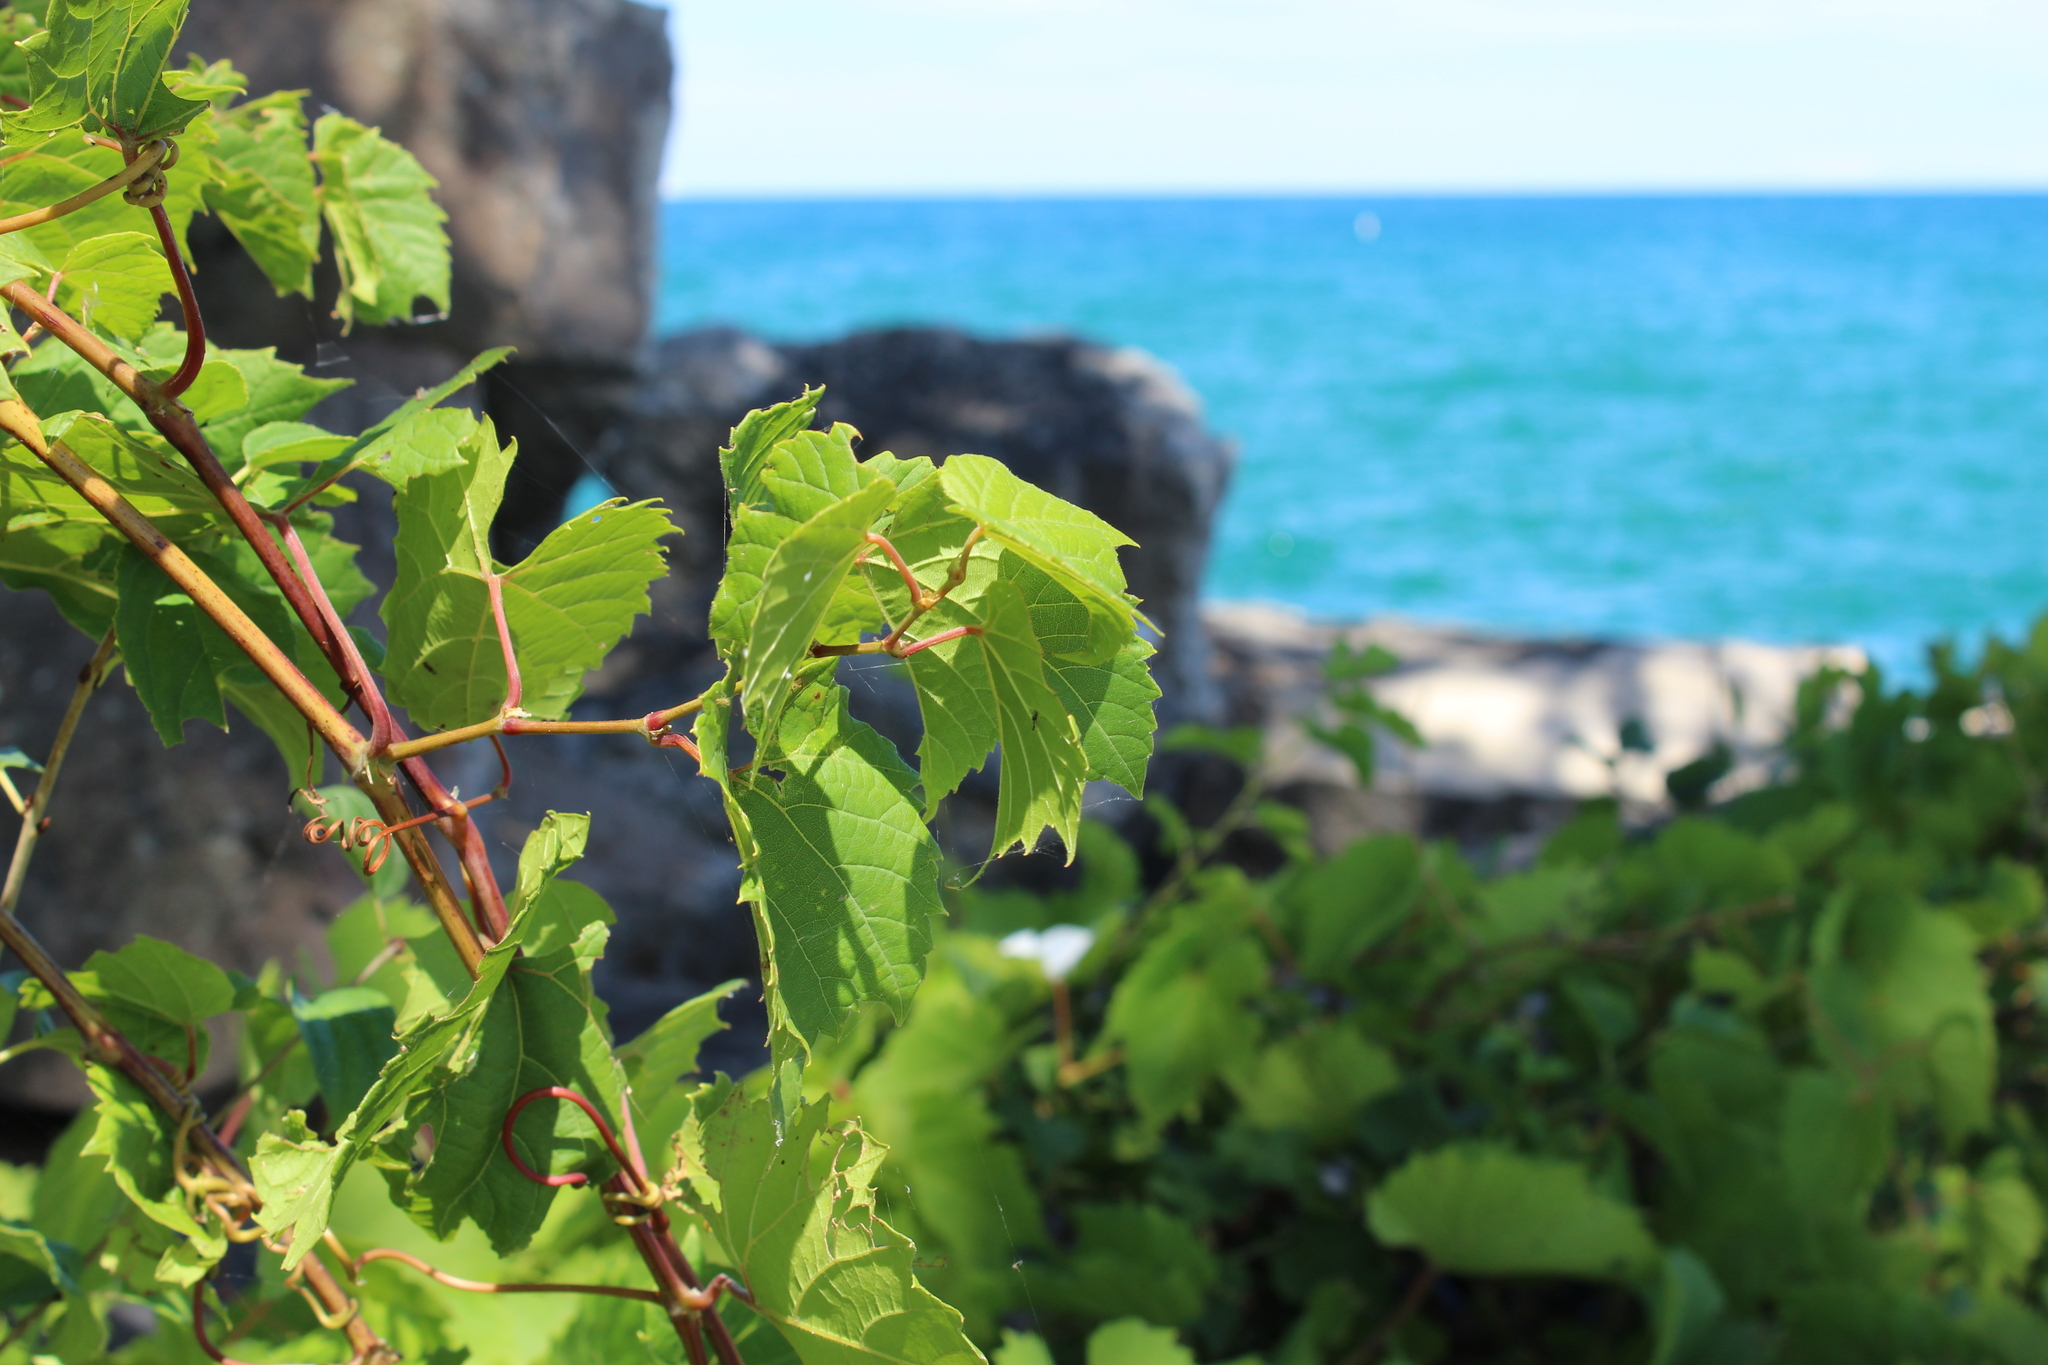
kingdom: Plantae
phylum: Tracheophyta
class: Magnoliopsida
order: Vitales
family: Vitaceae
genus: Vitis
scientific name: Vitis riparia
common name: Frost grape
